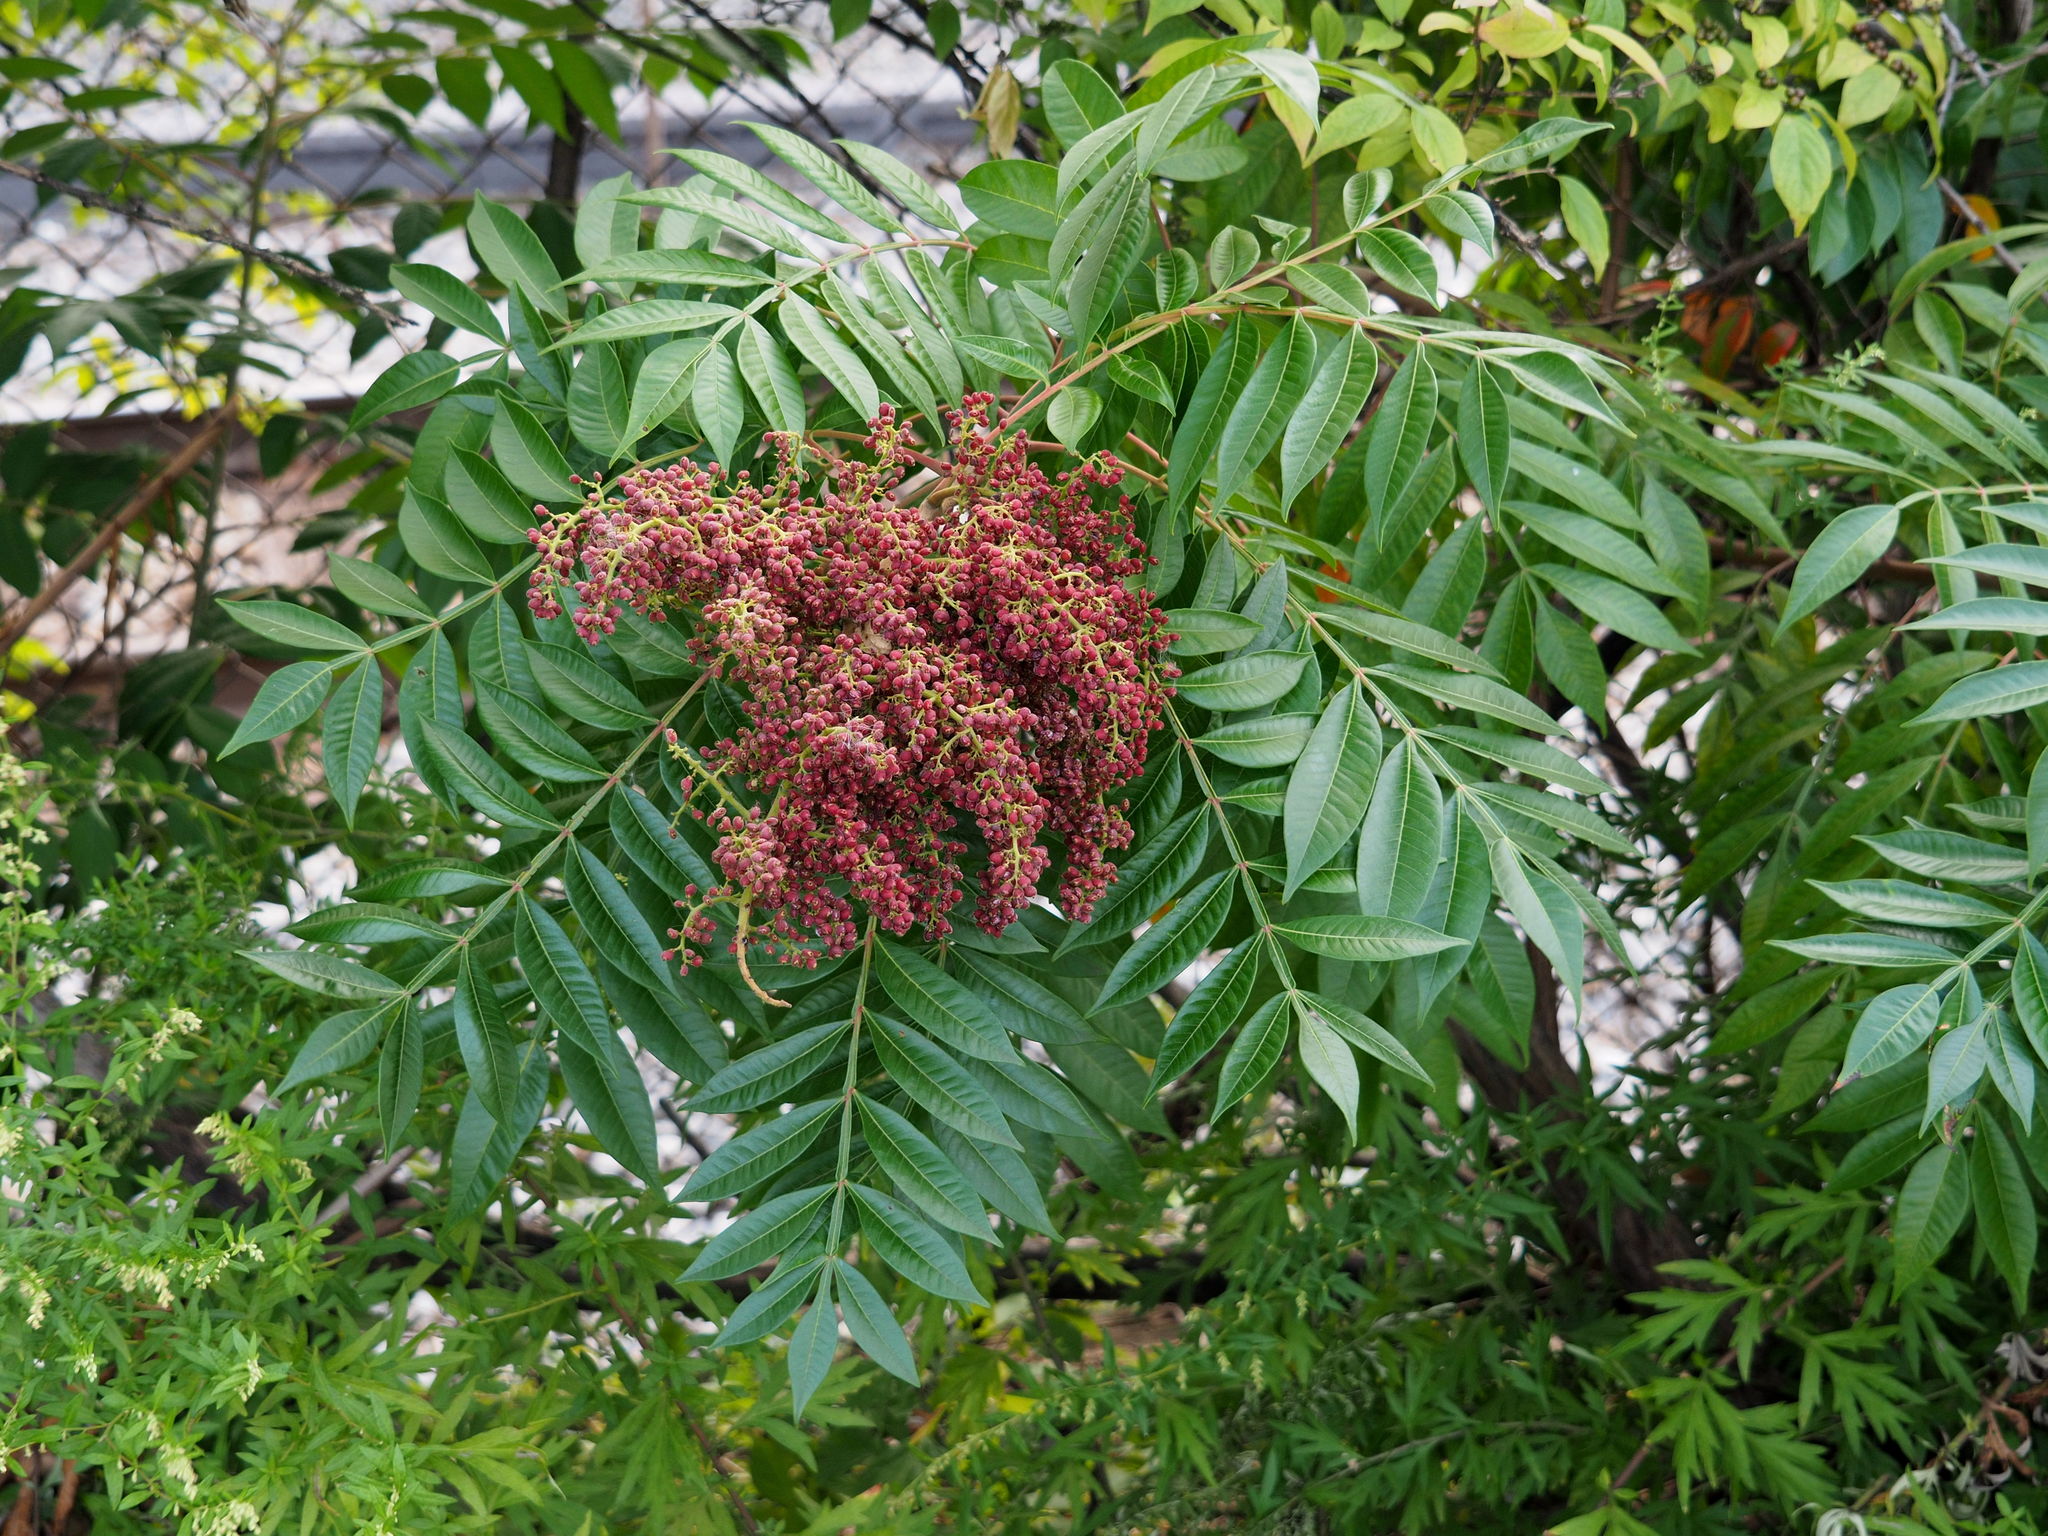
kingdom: Plantae
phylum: Tracheophyta
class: Magnoliopsida
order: Sapindales
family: Anacardiaceae
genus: Rhus
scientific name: Rhus copallina
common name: Shining sumac
